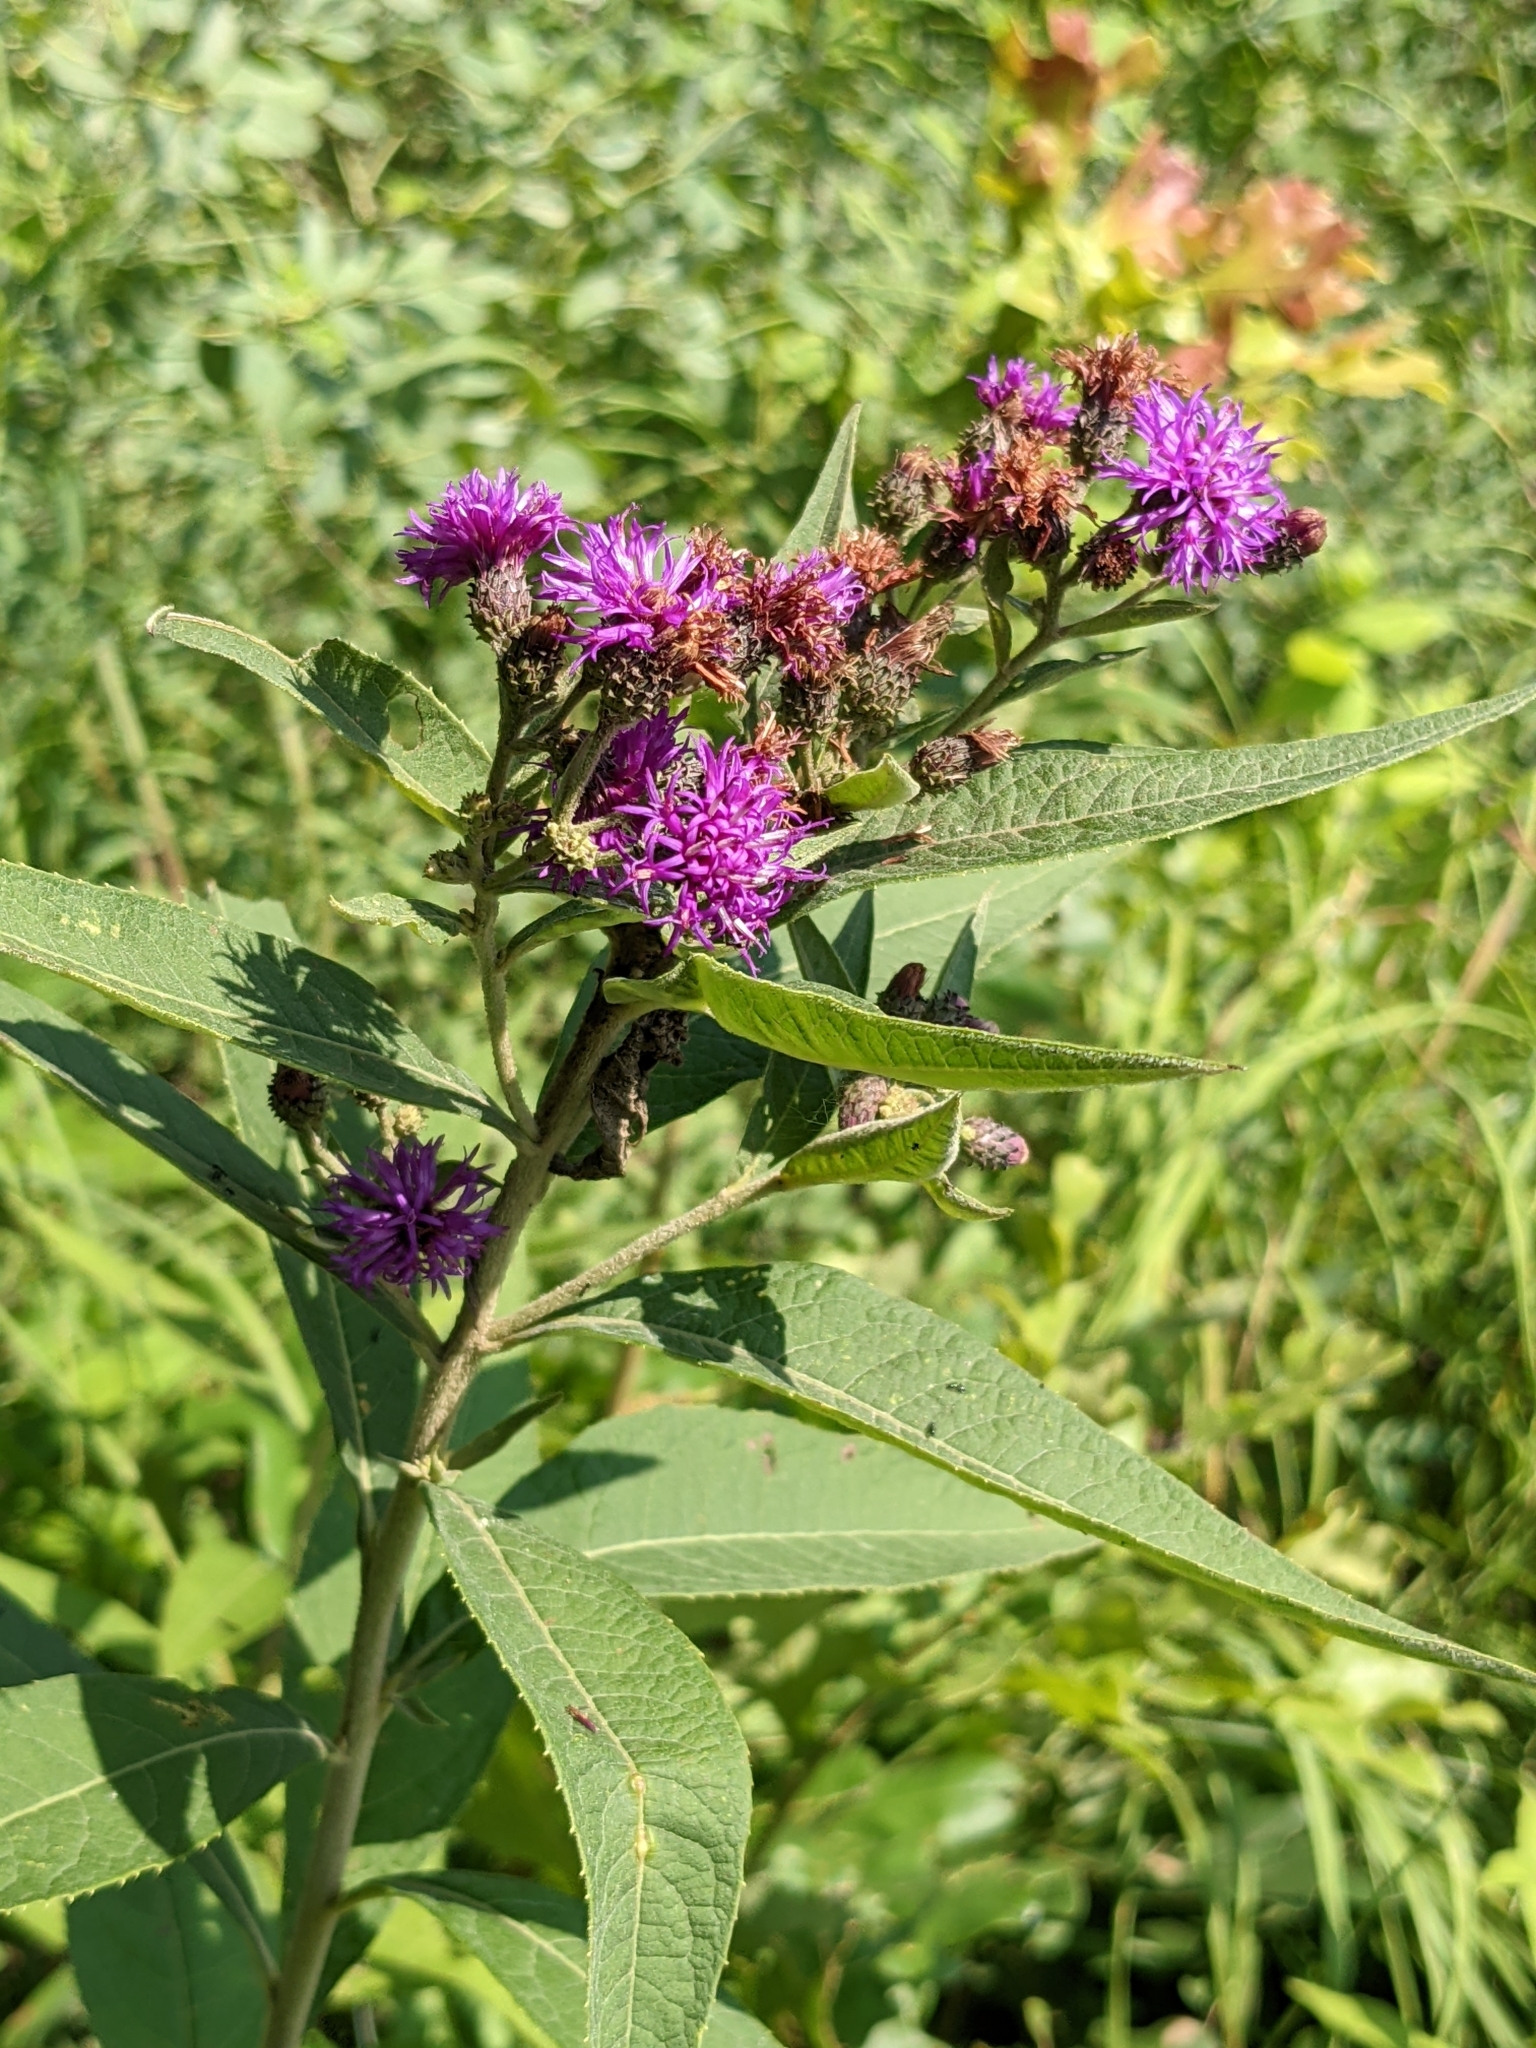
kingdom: Plantae
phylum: Tracheophyta
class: Magnoliopsida
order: Asterales
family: Asteraceae
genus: Vernonia
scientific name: Vernonia baldwinii
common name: Western ironweed
